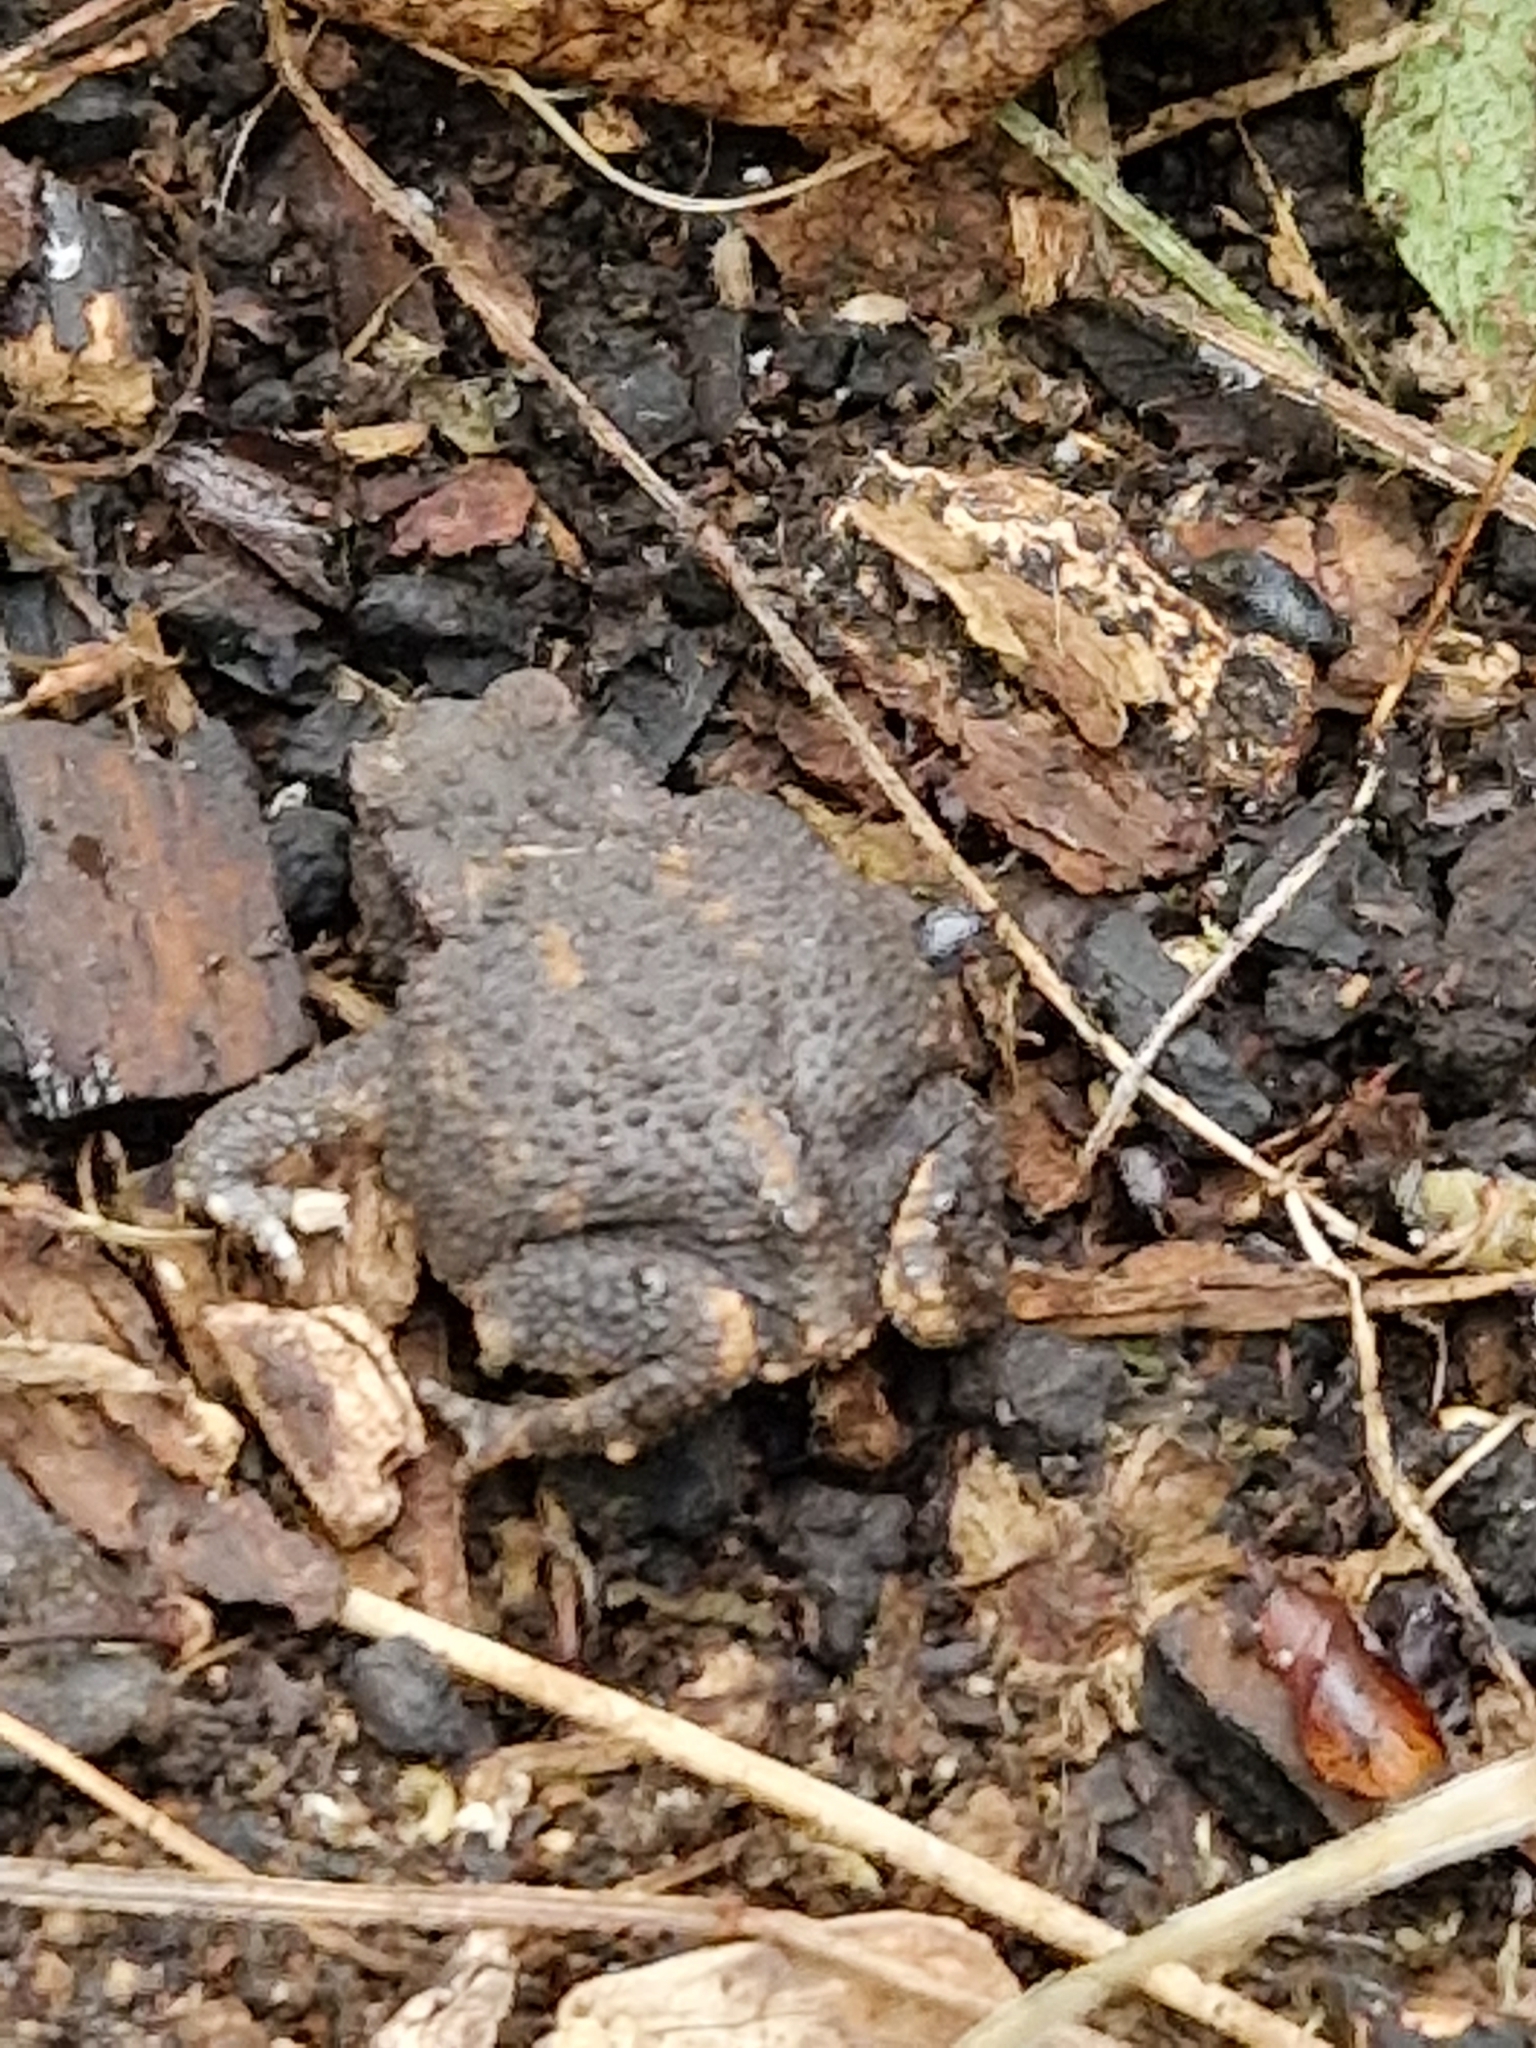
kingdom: Animalia
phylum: Chordata
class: Amphibia
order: Anura
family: Bufonidae
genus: Bufo
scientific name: Bufo bufo
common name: Common toad
